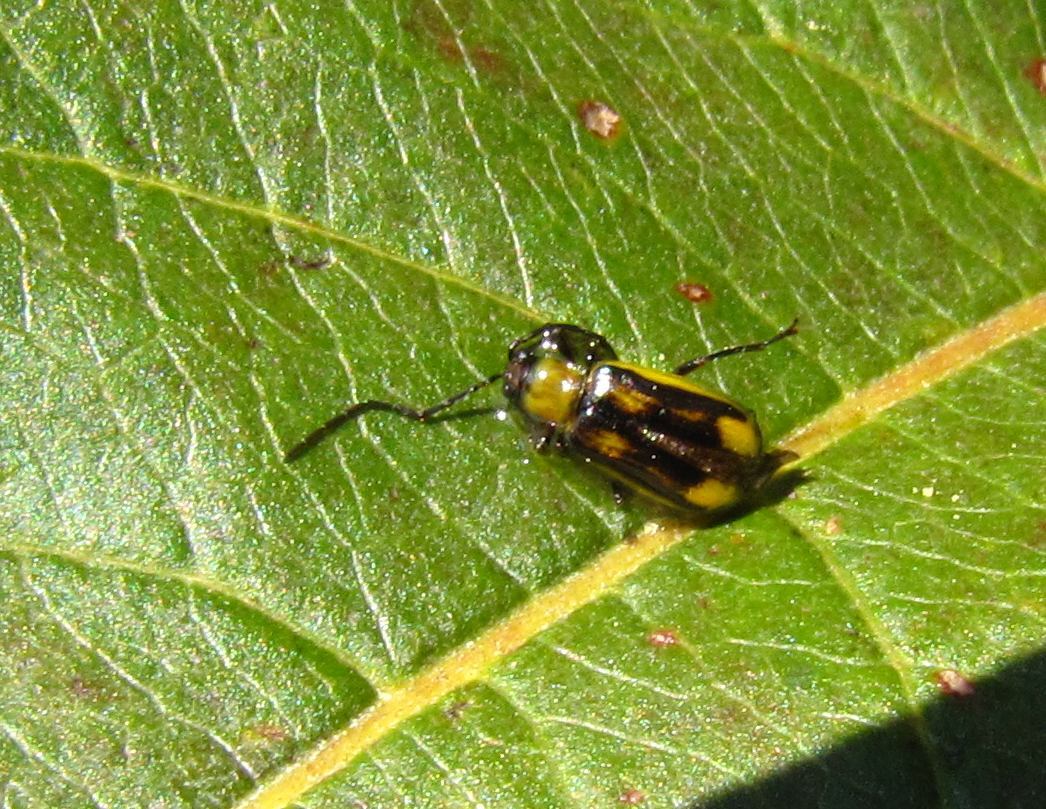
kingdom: Animalia
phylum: Arthropoda
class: Insecta
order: Coleoptera
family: Chrysomelidae
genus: Diabrotica
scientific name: Diabrotica virgifera
